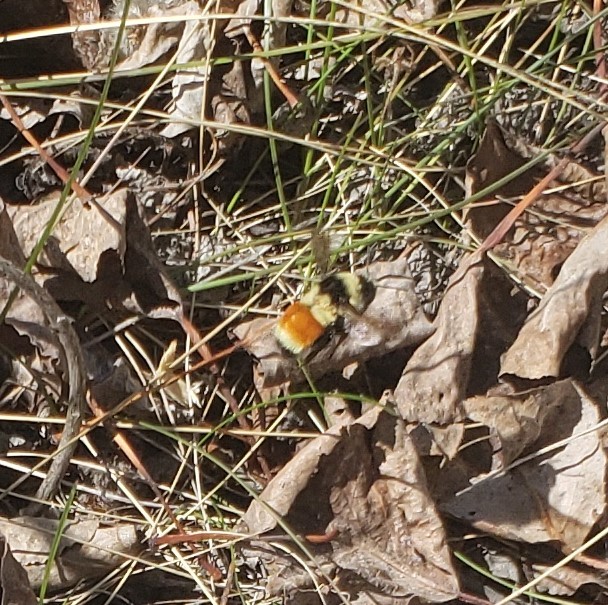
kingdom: Animalia
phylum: Arthropoda
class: Insecta
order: Hymenoptera
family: Apidae
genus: Bombus
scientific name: Bombus ternarius
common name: Tri-colored bumble bee
